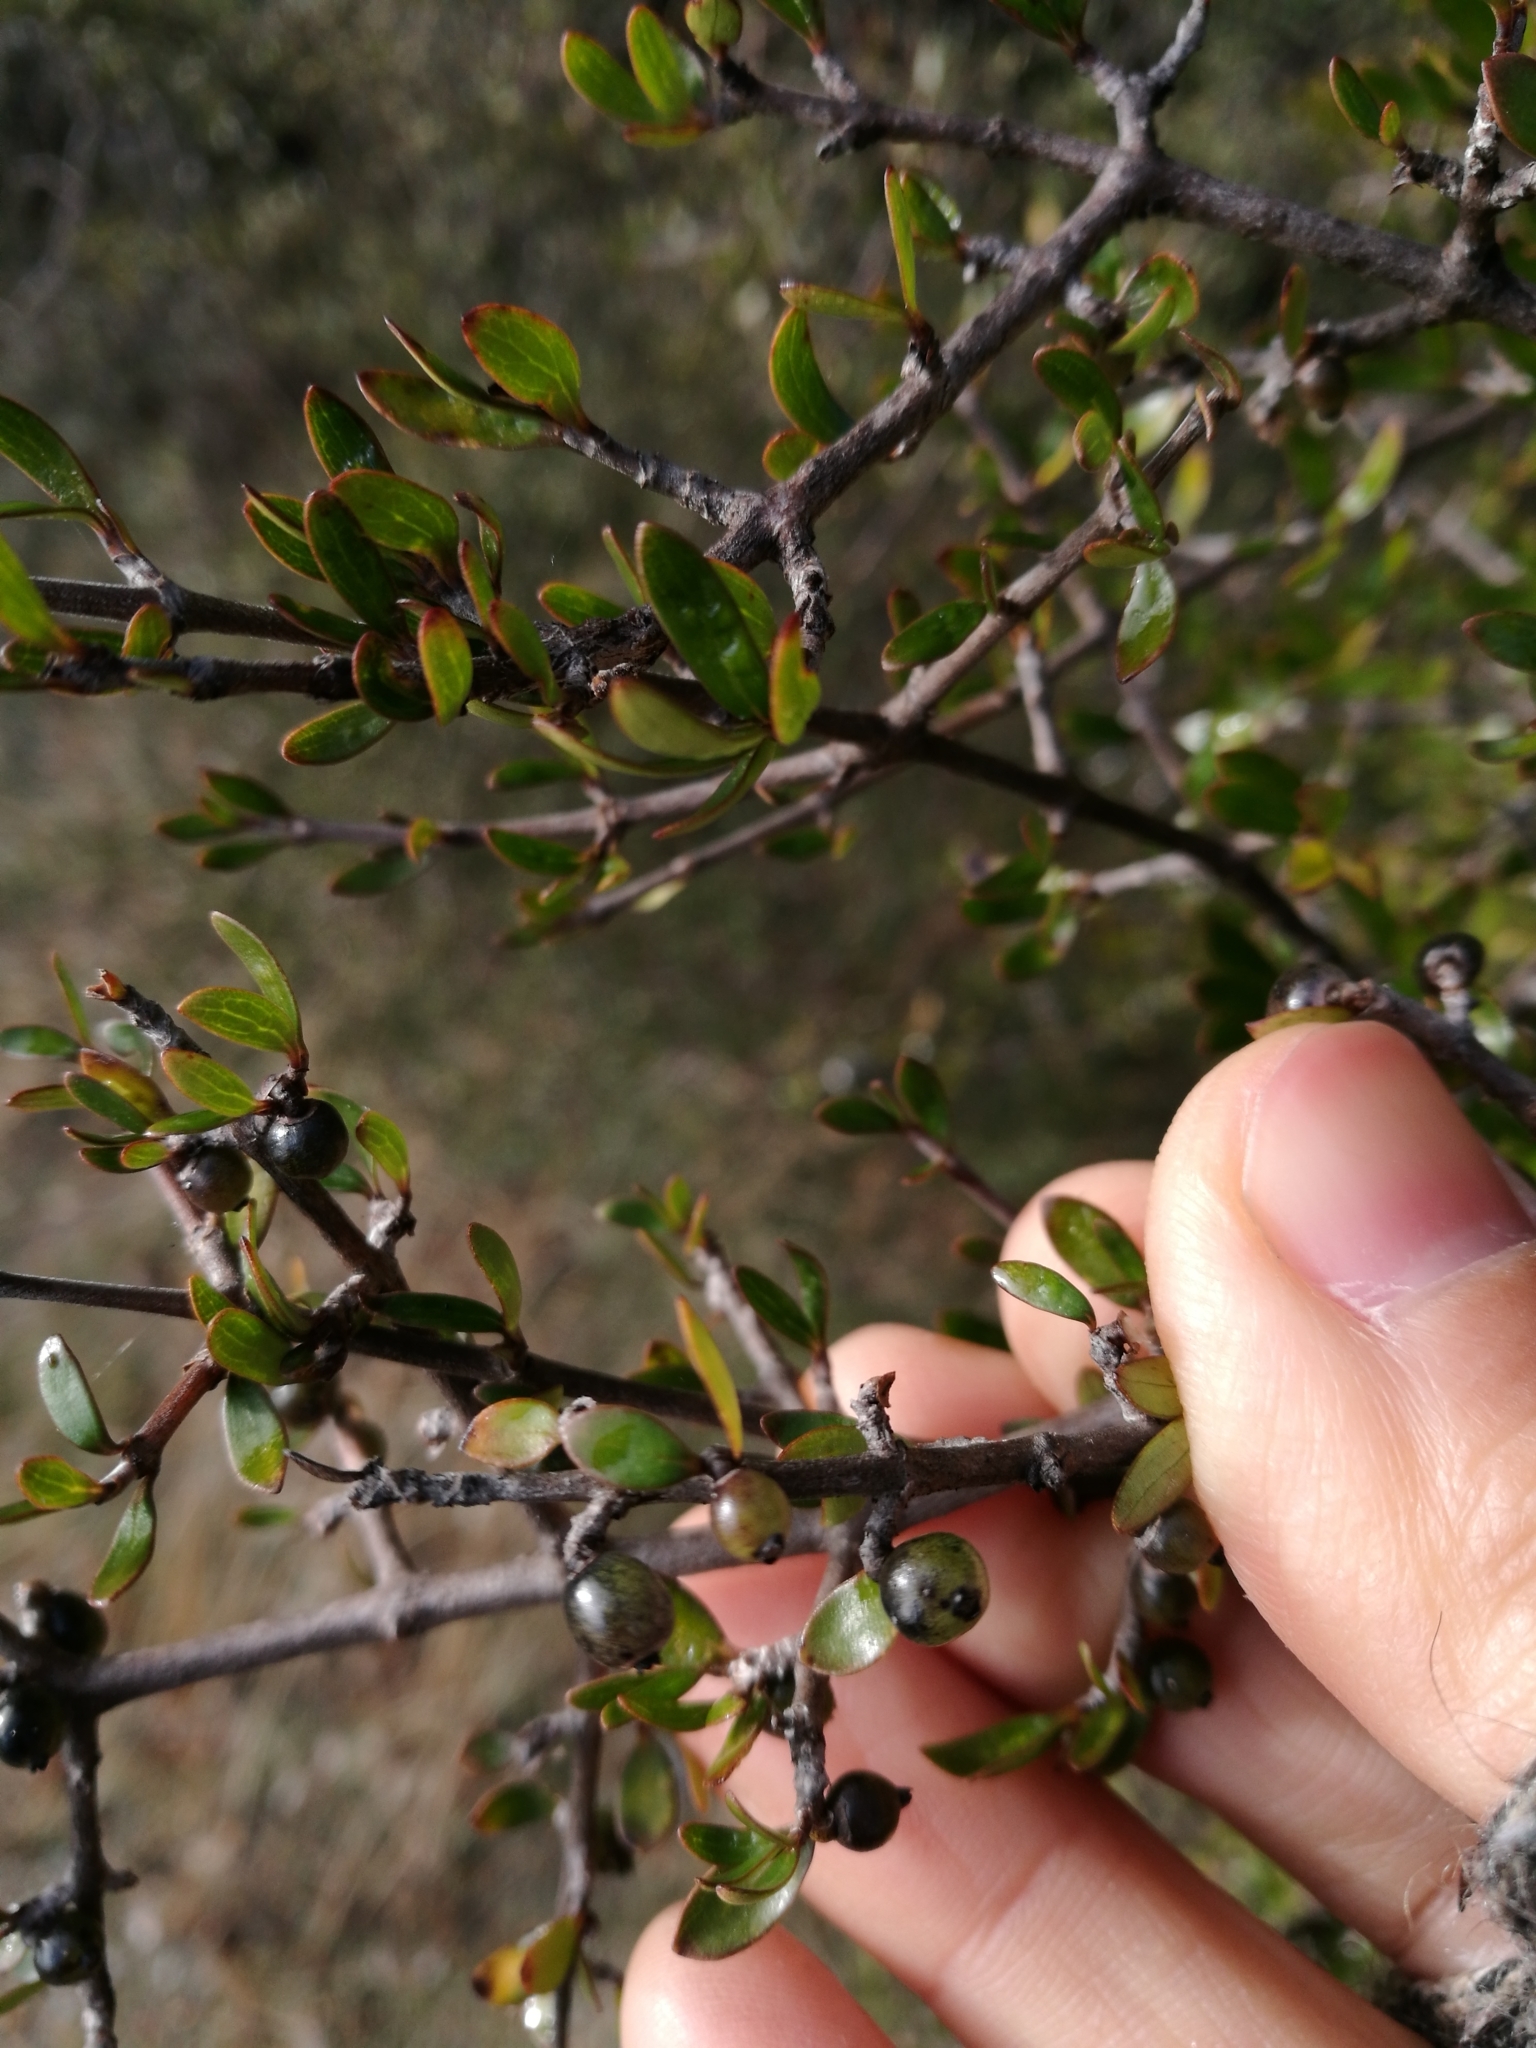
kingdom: Plantae
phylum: Tracheophyta
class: Magnoliopsida
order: Gentianales
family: Rubiaceae
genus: Coprosma
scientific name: Coprosma propinqua
